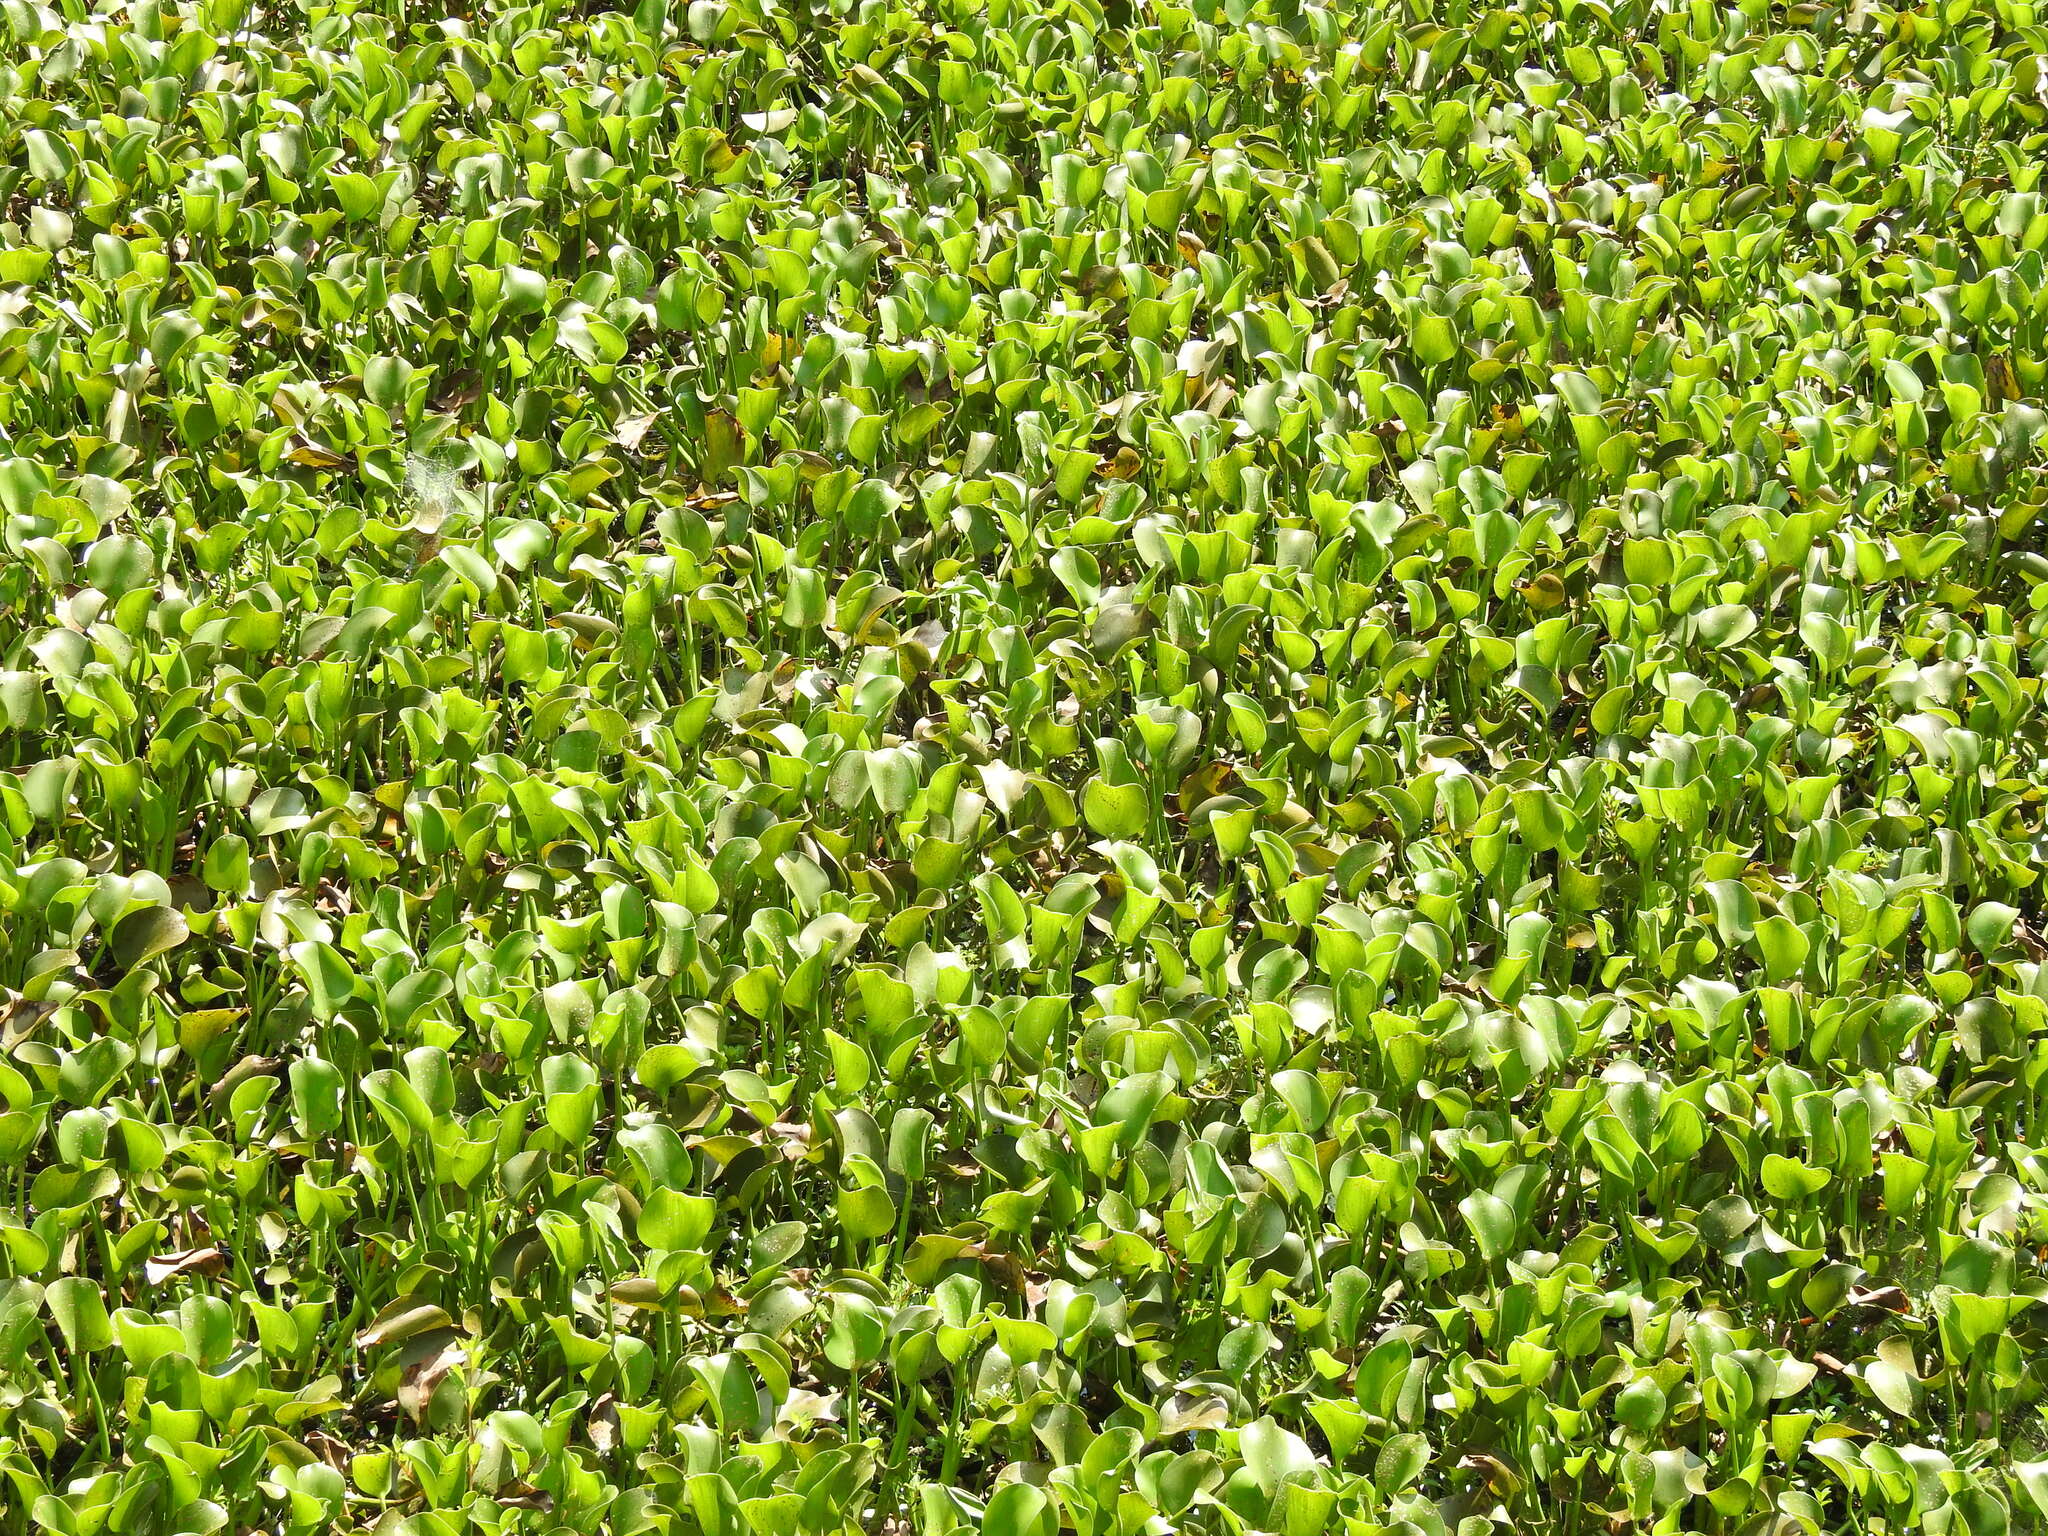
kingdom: Plantae
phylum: Tracheophyta
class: Liliopsida
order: Commelinales
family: Pontederiaceae
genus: Pontederia
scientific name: Pontederia crassipes
